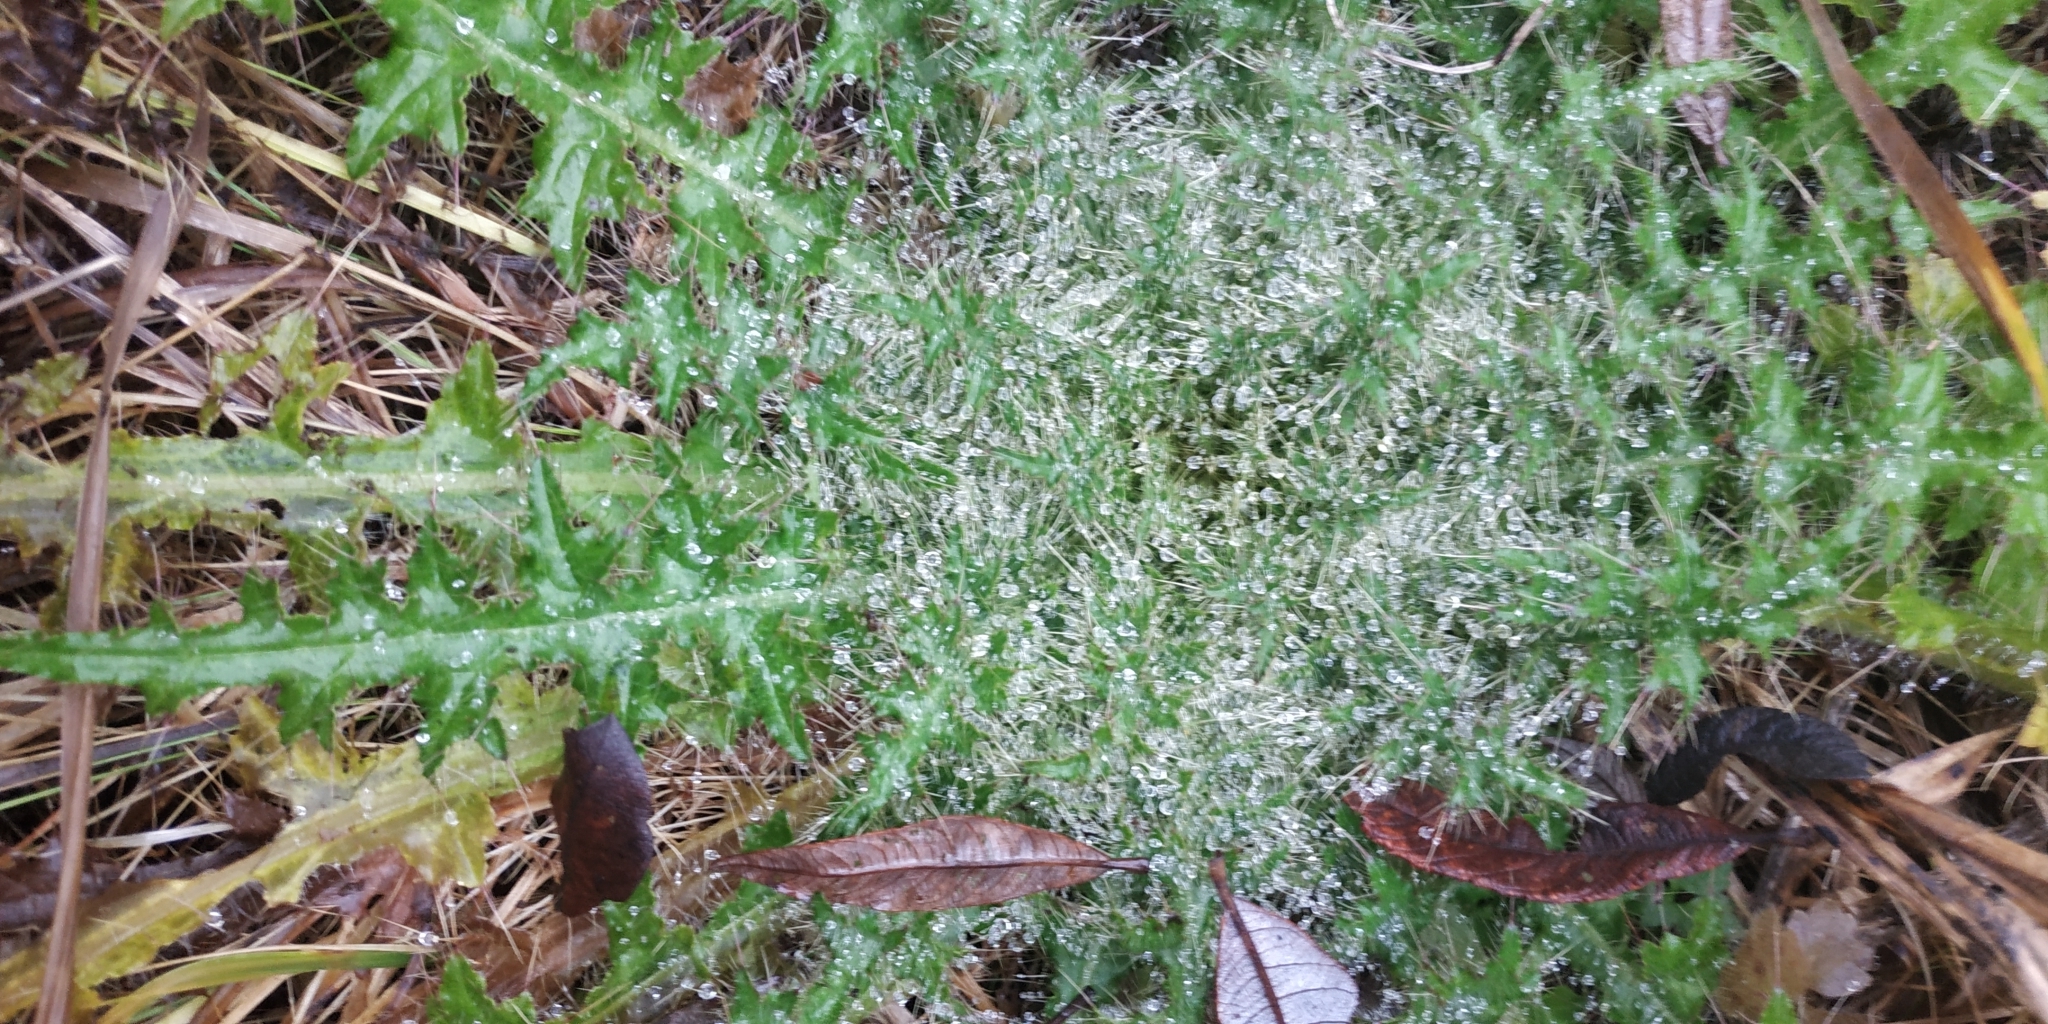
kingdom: Plantae
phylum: Tracheophyta
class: Magnoliopsida
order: Asterales
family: Asteraceae
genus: Cirsium
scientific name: Cirsium palustre
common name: Marsh thistle
